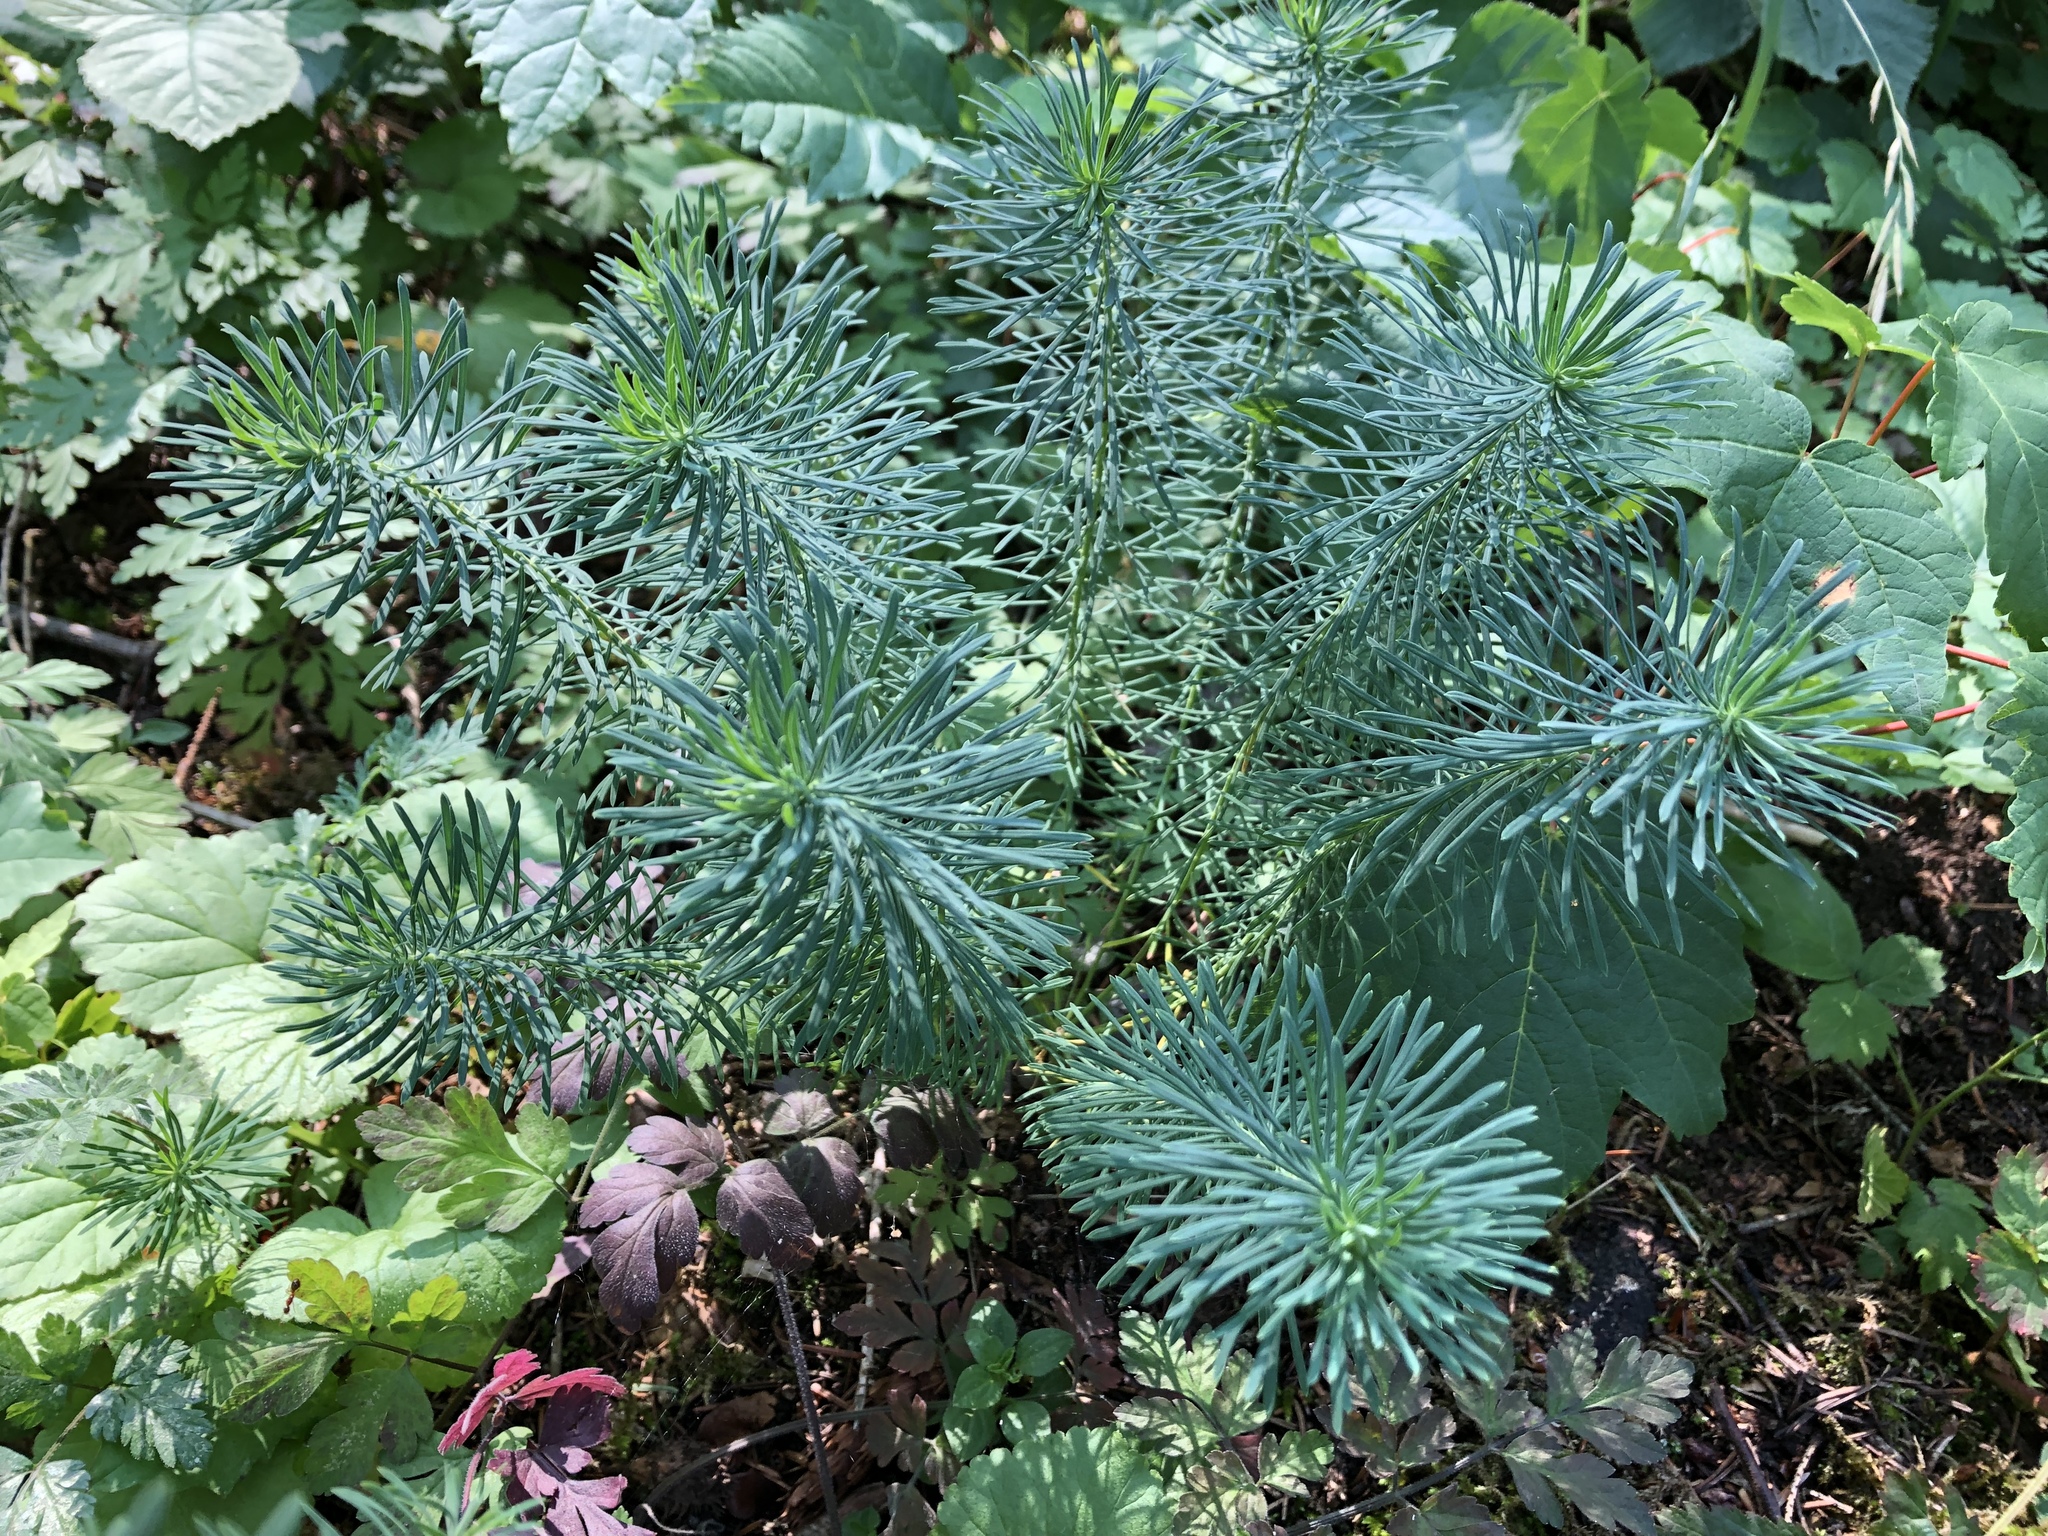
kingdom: Plantae
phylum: Tracheophyta
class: Magnoliopsida
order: Malpighiales
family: Euphorbiaceae
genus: Euphorbia
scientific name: Euphorbia cyparissias
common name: Cypress spurge
